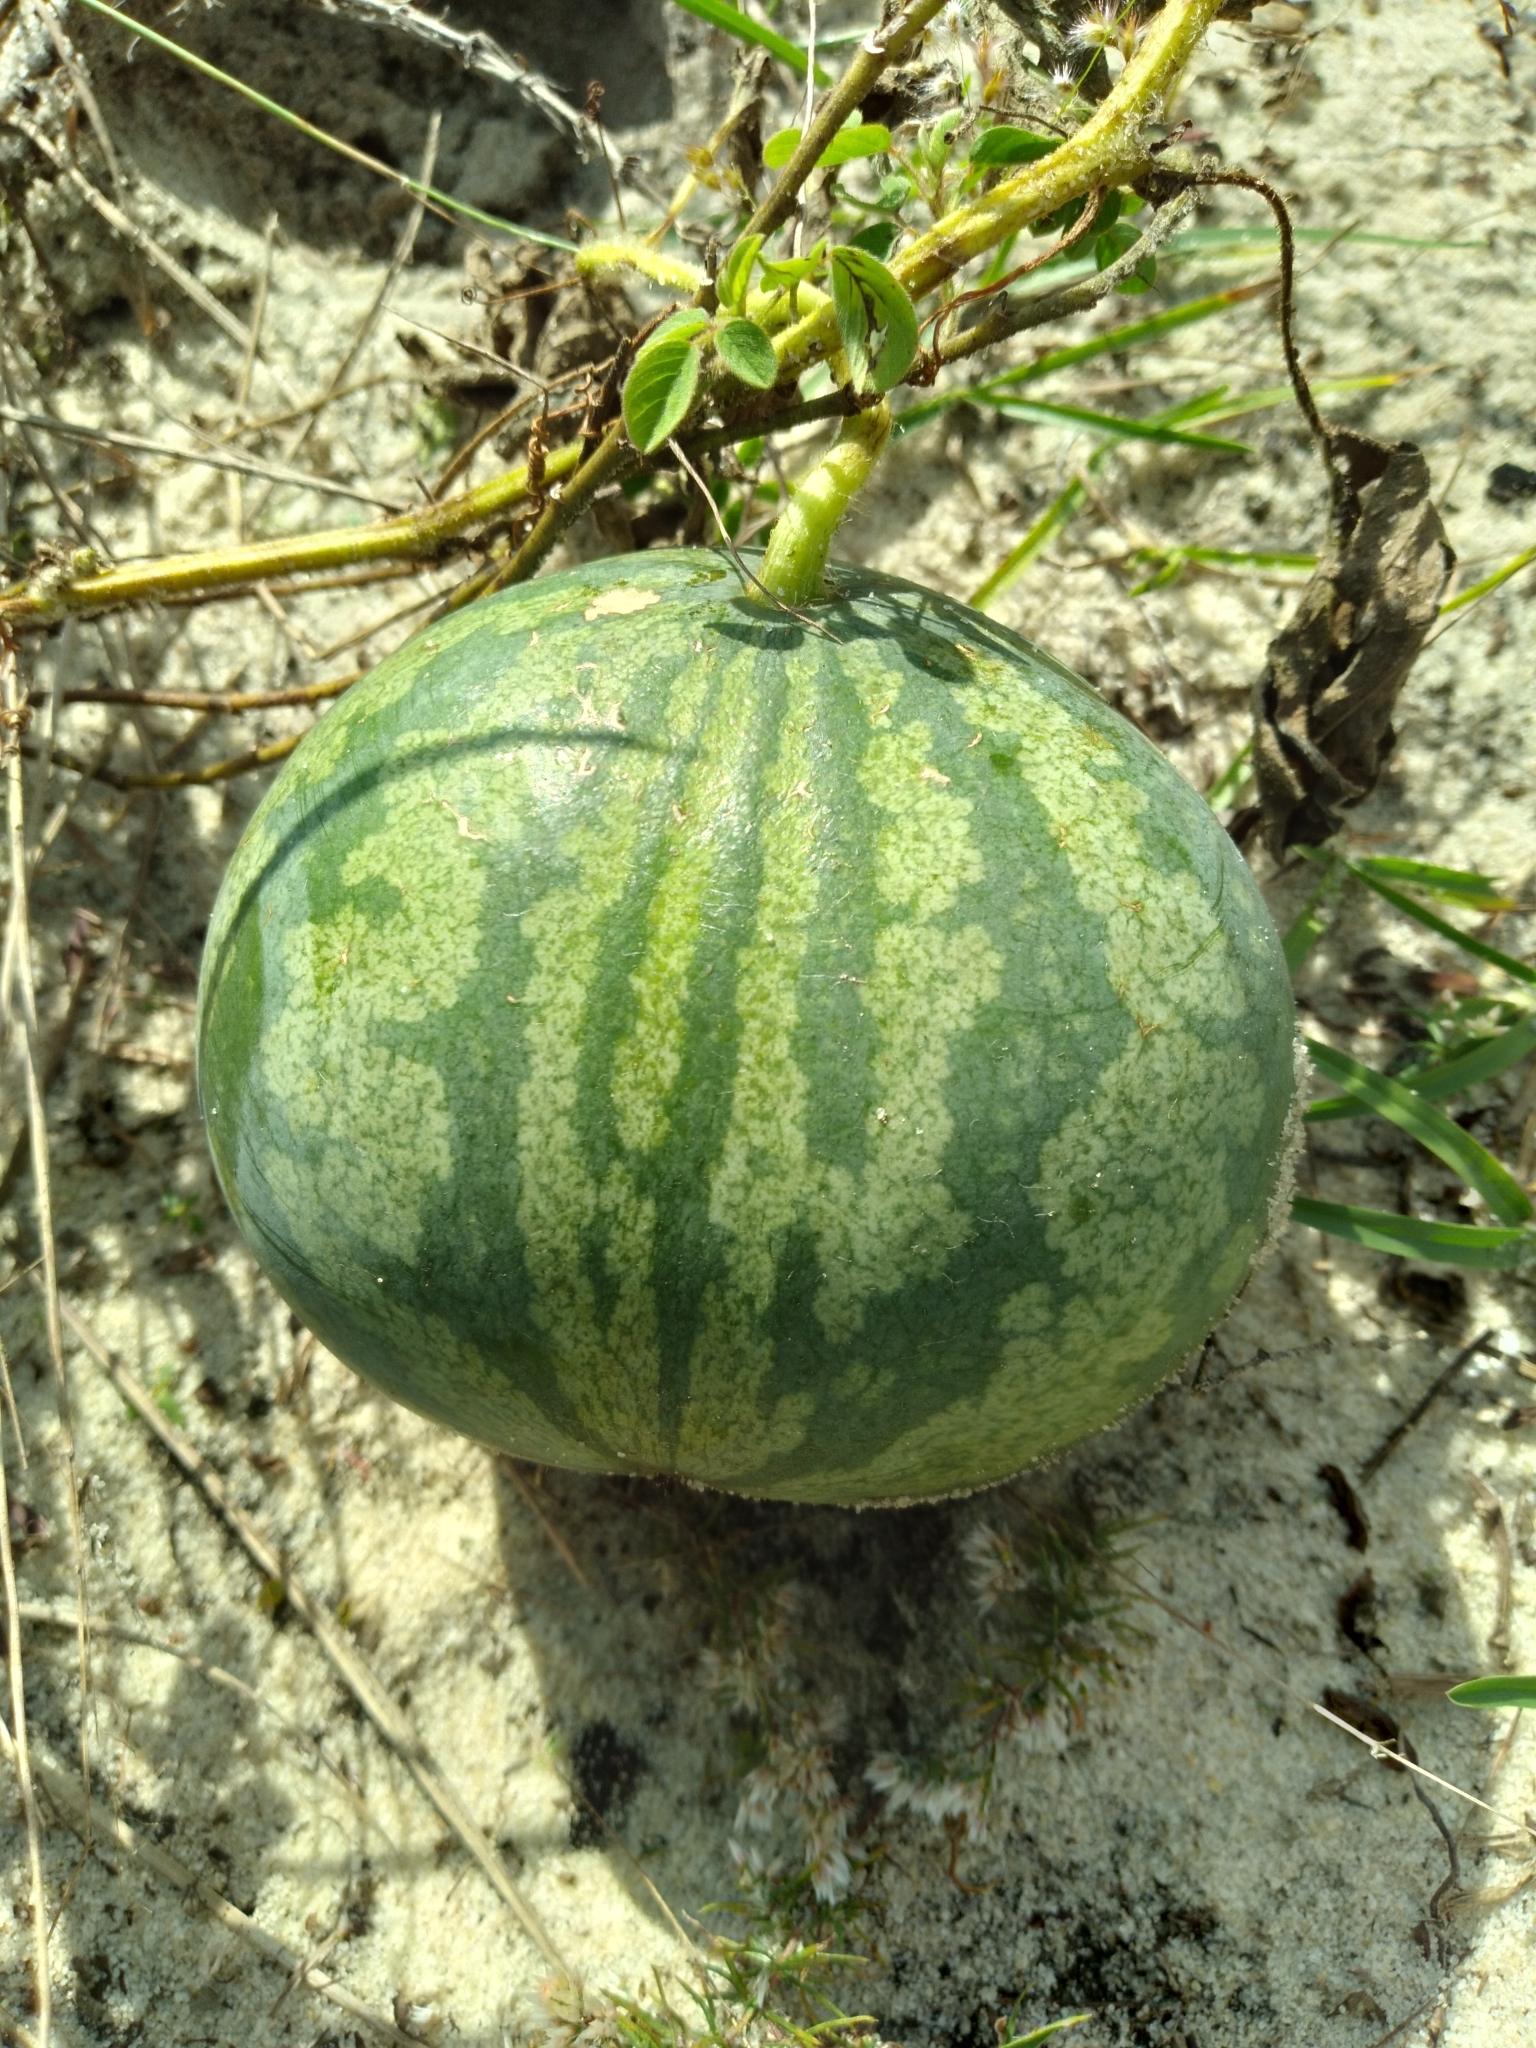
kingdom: Plantae
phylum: Tracheophyta
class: Magnoliopsida
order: Cucurbitales
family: Cucurbitaceae
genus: Citrullus
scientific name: Citrullus lanatus
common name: Watermelon
